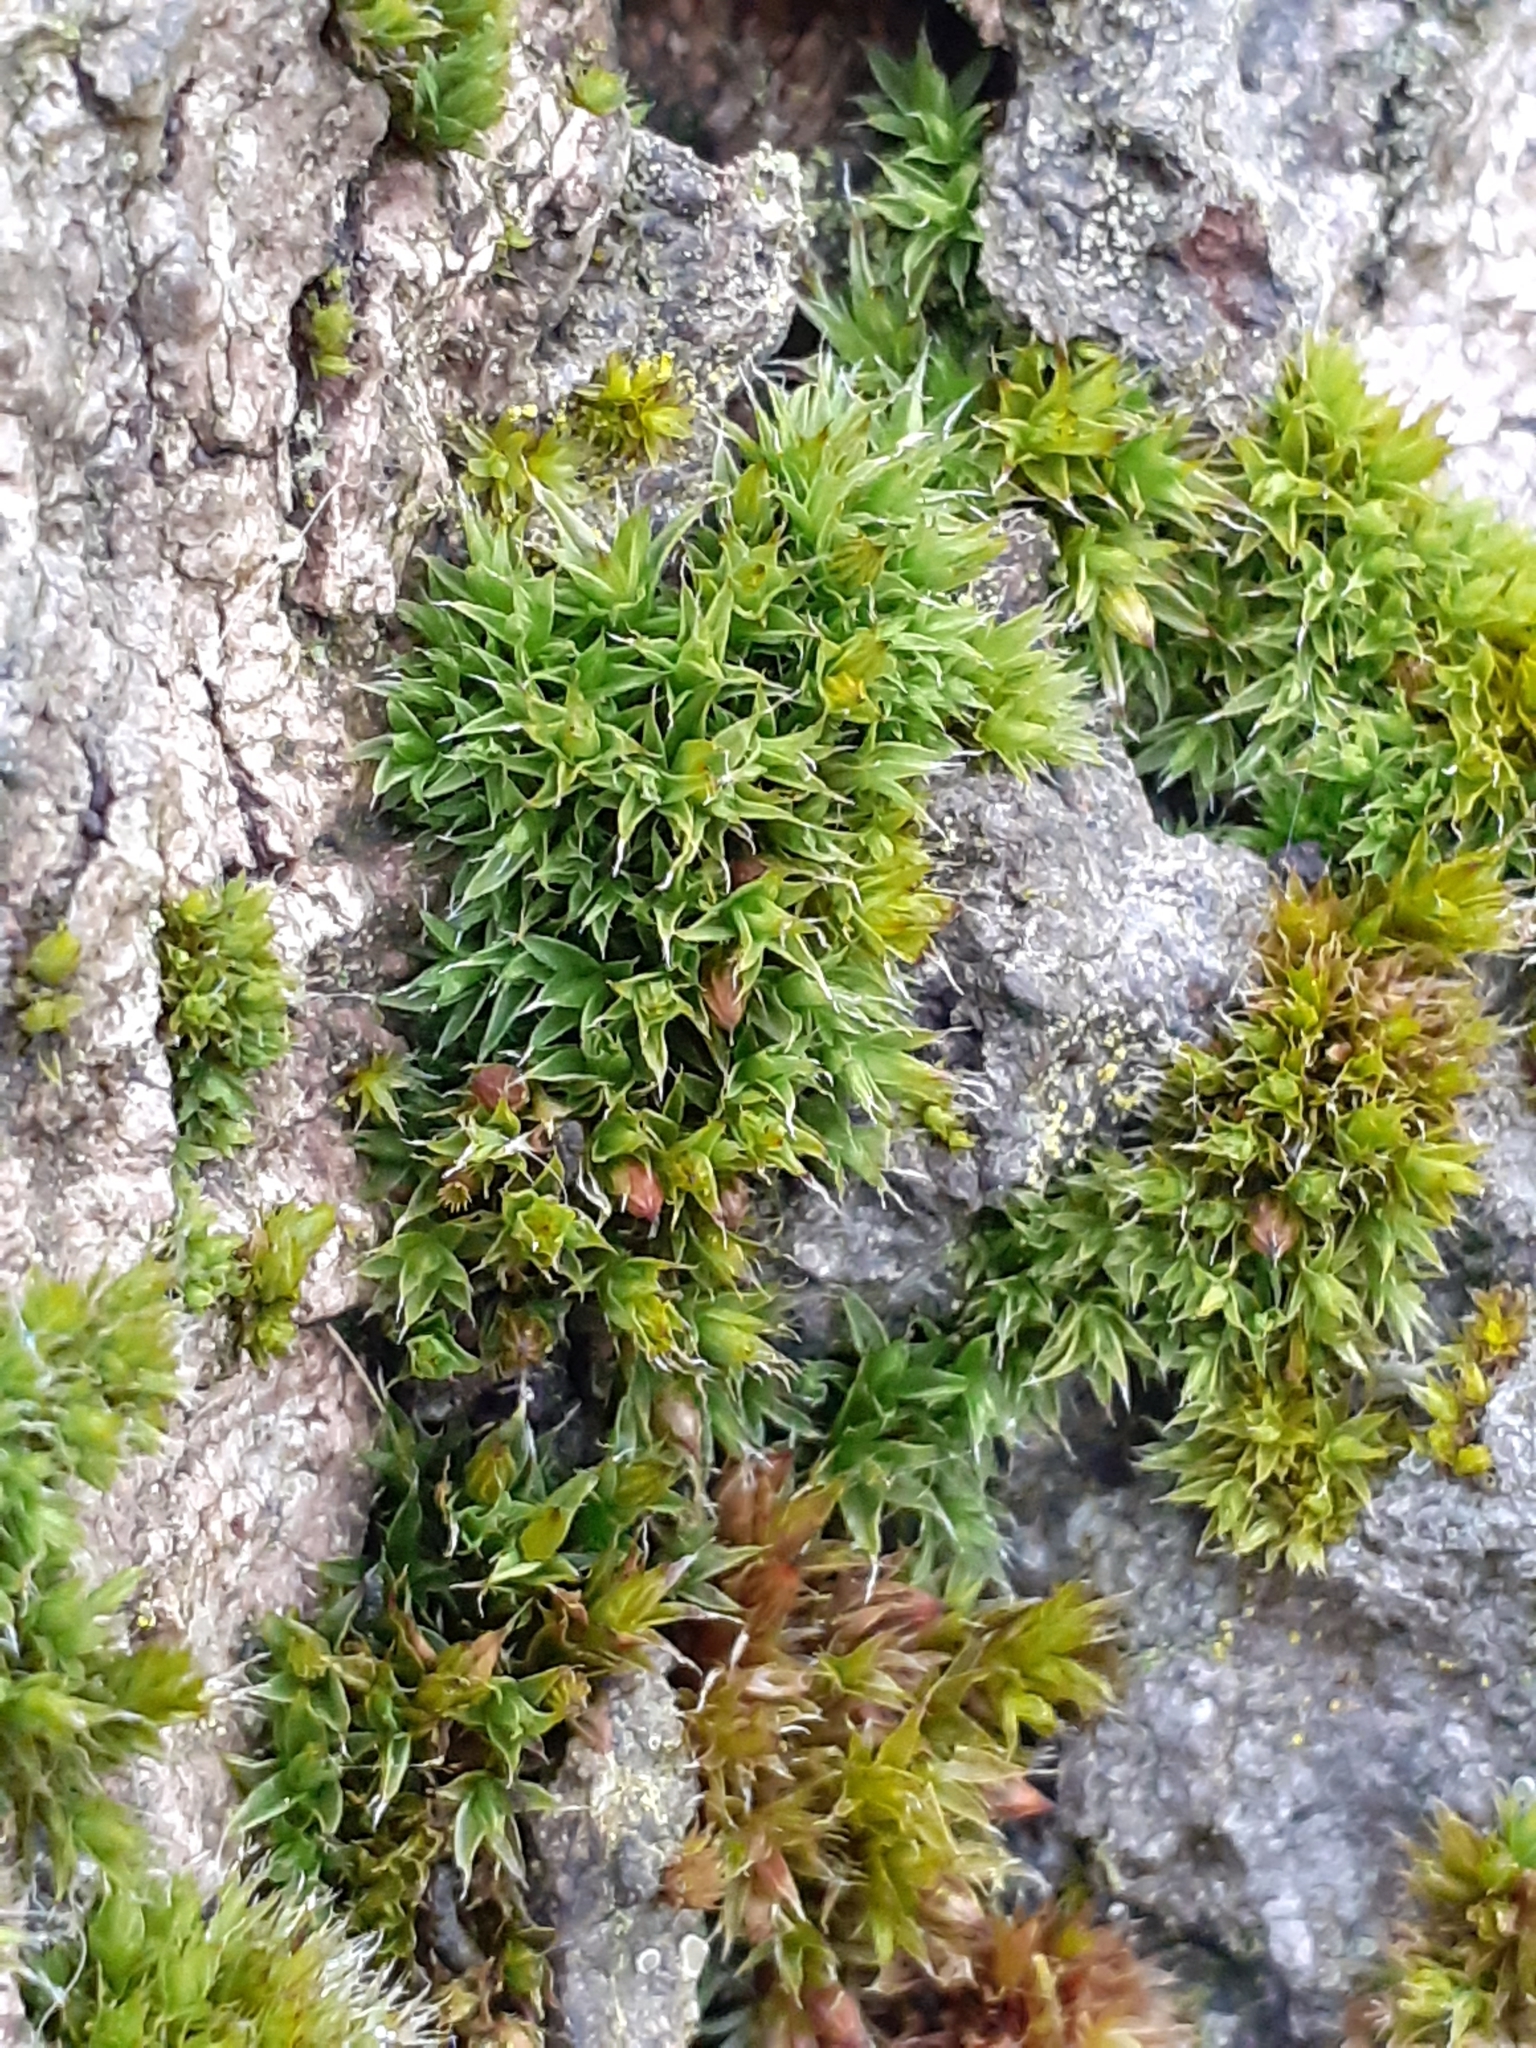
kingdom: Plantae
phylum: Bryophyta
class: Bryopsida
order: Orthotrichales
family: Orthotrichaceae
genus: Orthotrichum
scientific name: Orthotrichum diaphanum
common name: White-tipped bristle-moss
